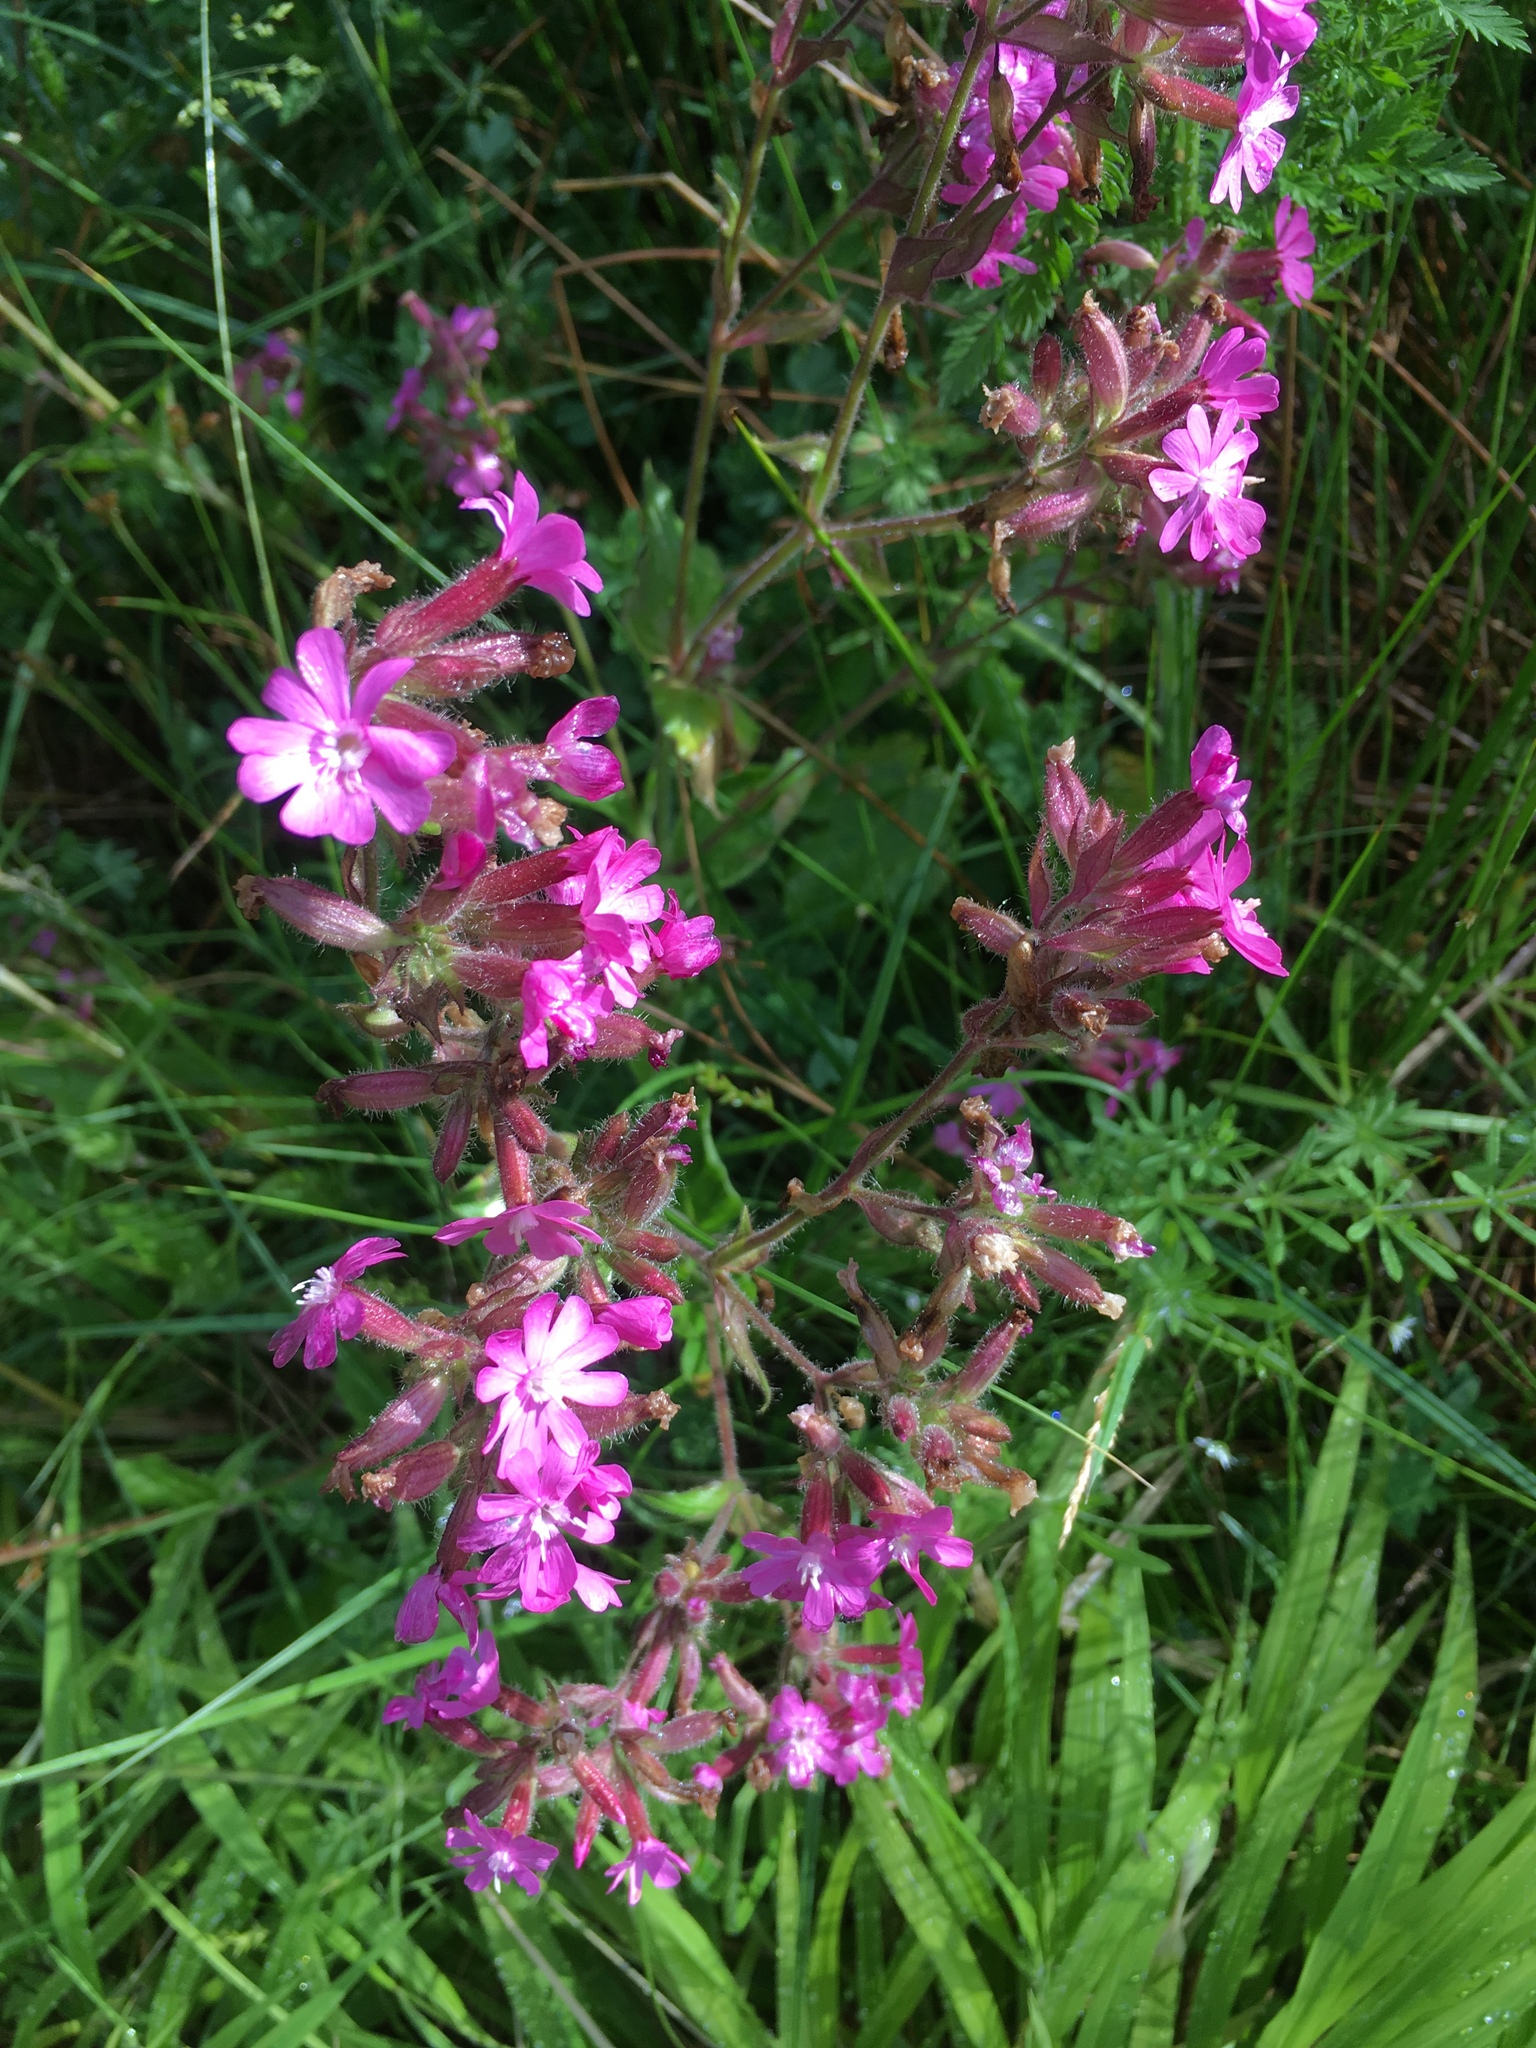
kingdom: Plantae
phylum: Tracheophyta
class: Magnoliopsida
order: Caryophyllales
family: Caryophyllaceae
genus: Silene
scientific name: Silene dioica
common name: Red campion
